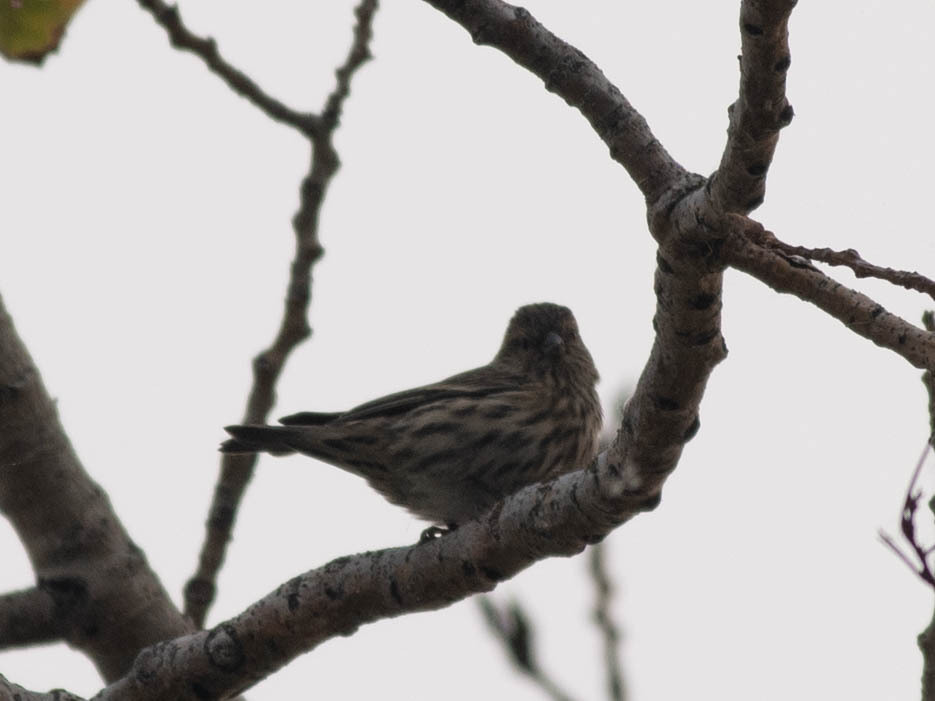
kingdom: Animalia
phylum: Chordata
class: Aves
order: Passeriformes
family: Fringillidae
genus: Spinus
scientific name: Spinus pinus
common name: Pine siskin
